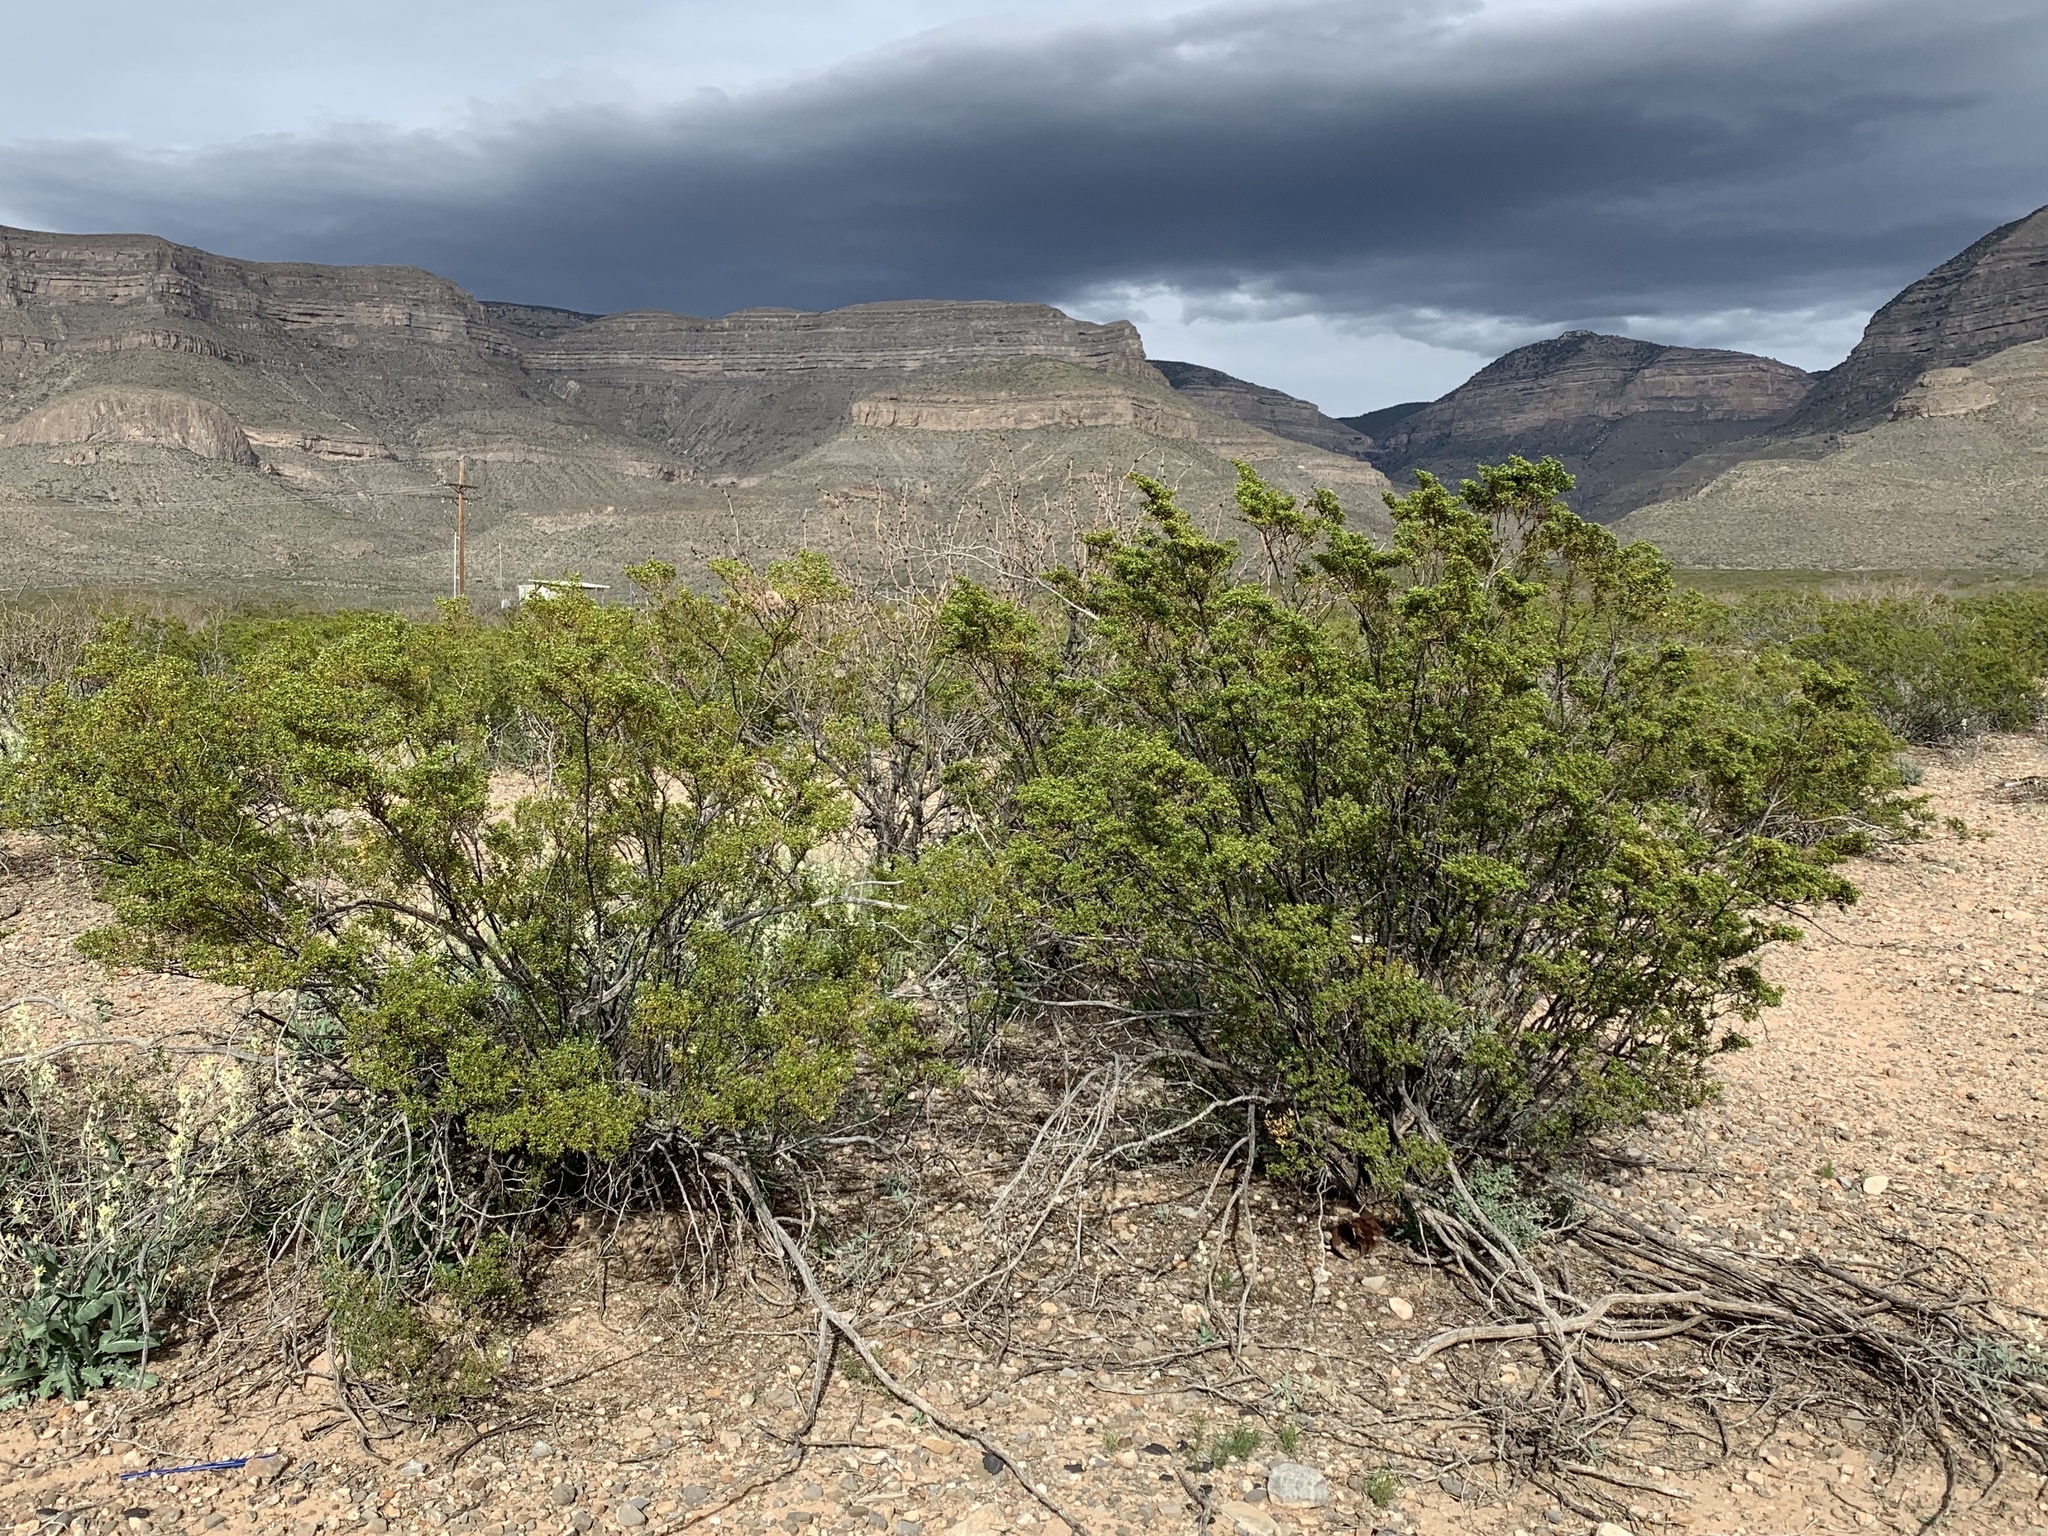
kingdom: Plantae
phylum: Tracheophyta
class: Magnoliopsida
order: Zygophyllales
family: Zygophyllaceae
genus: Larrea
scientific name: Larrea tridentata
